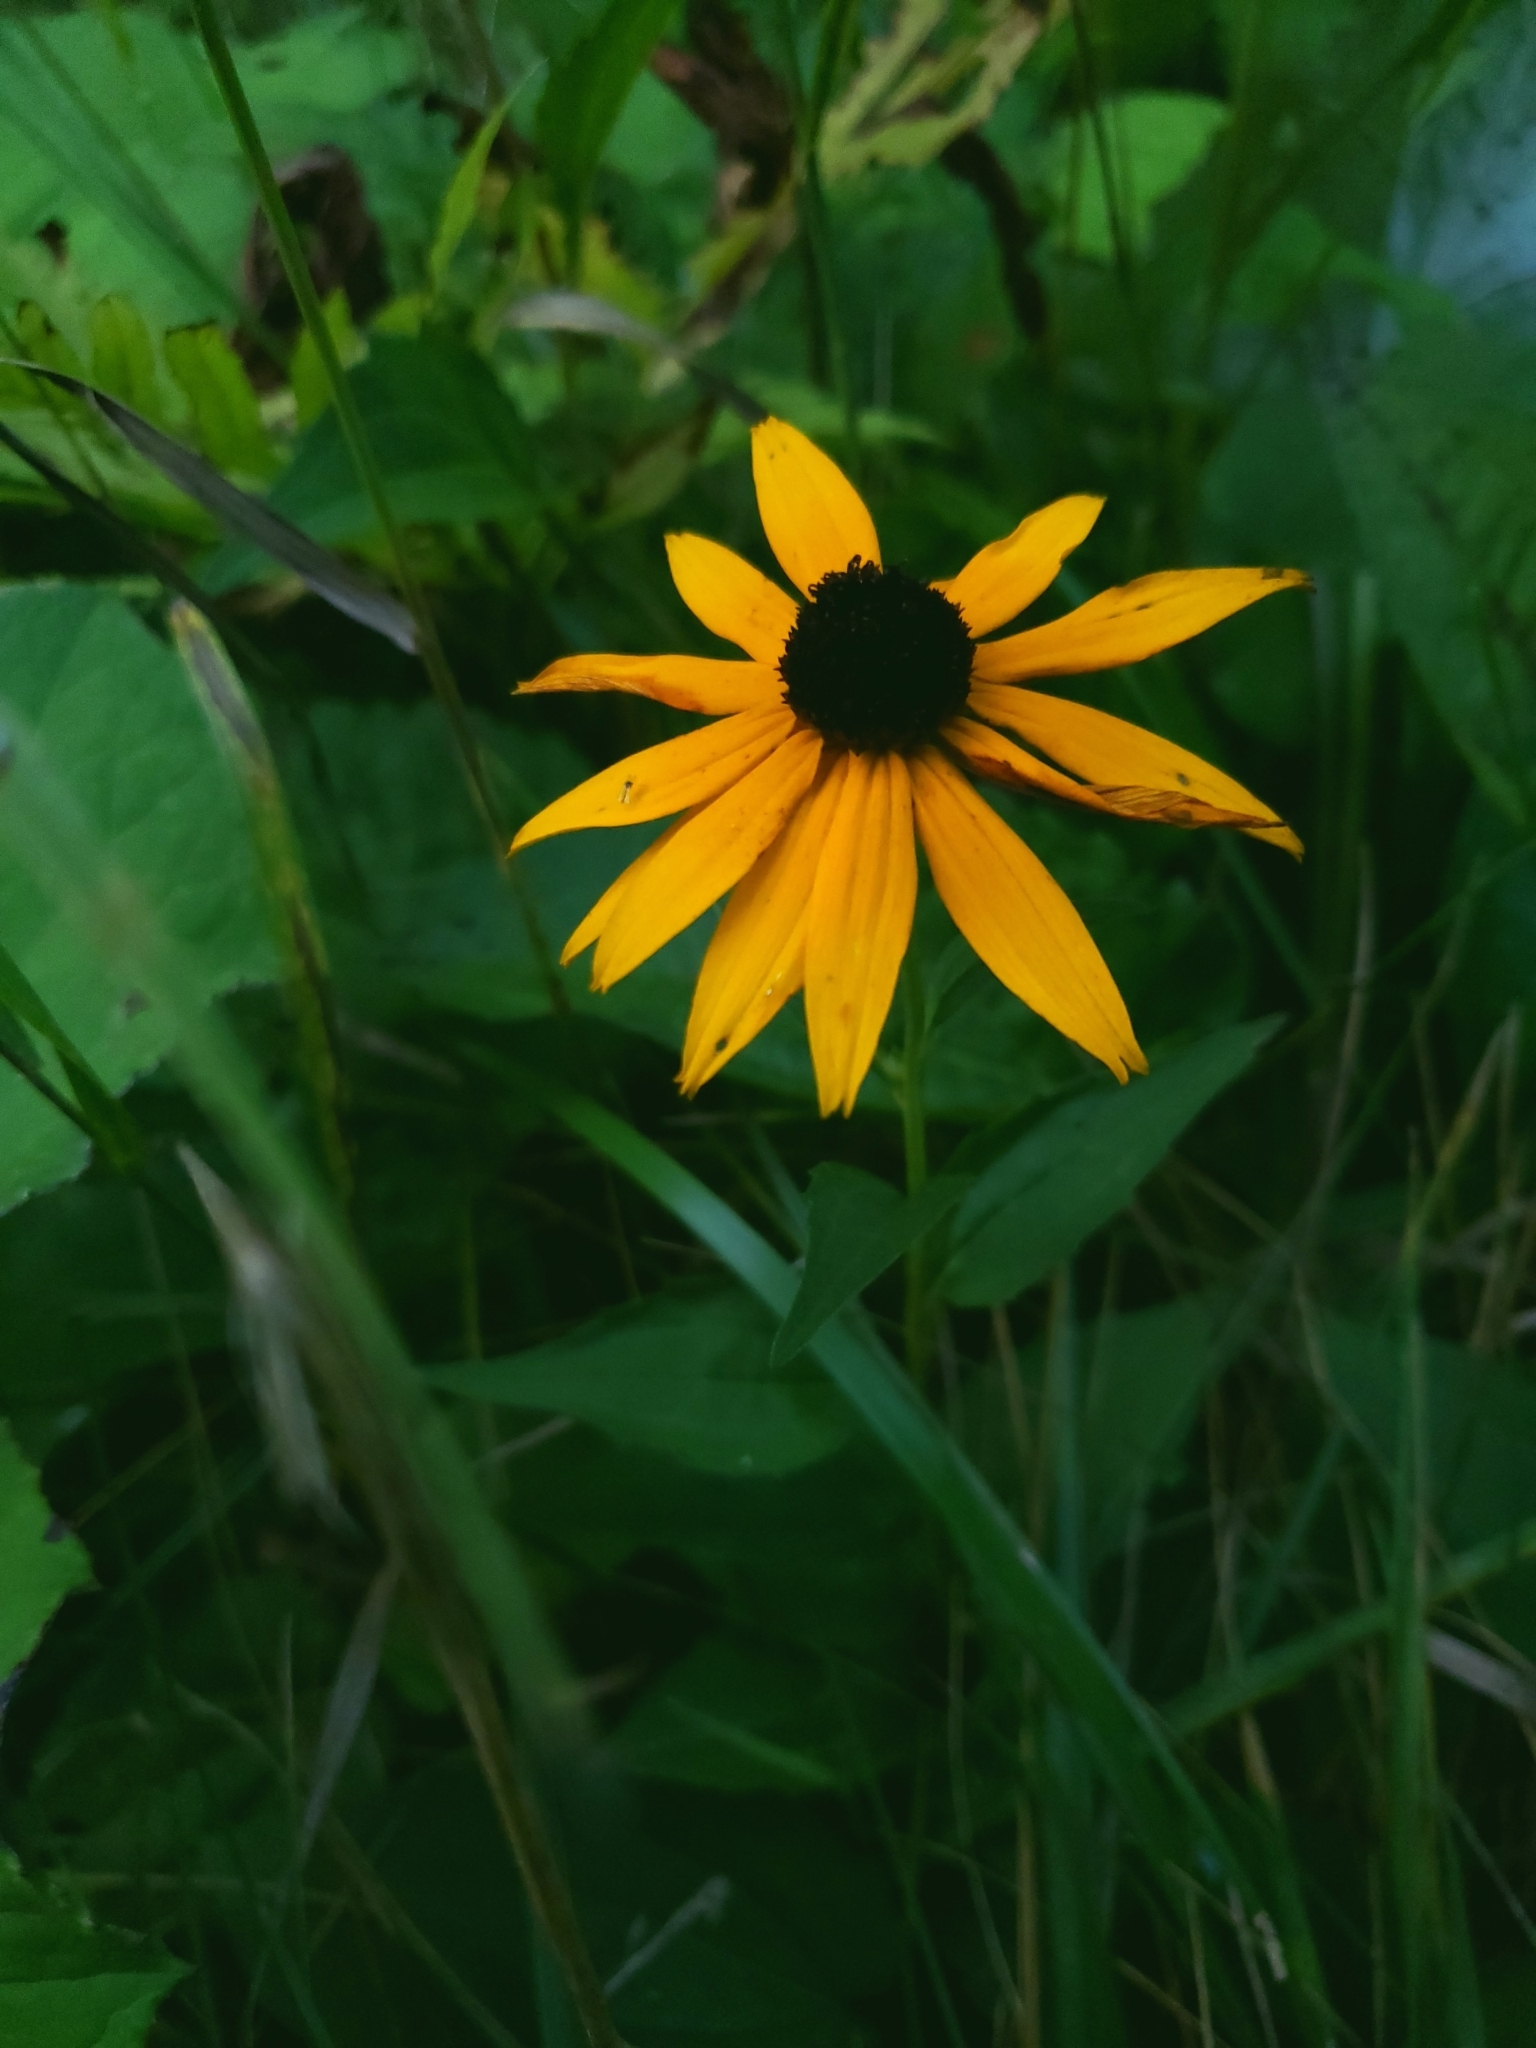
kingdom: Plantae
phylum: Tracheophyta
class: Magnoliopsida
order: Asterales
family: Asteraceae
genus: Rudbeckia
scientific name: Rudbeckia hirta
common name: Black-eyed-susan
